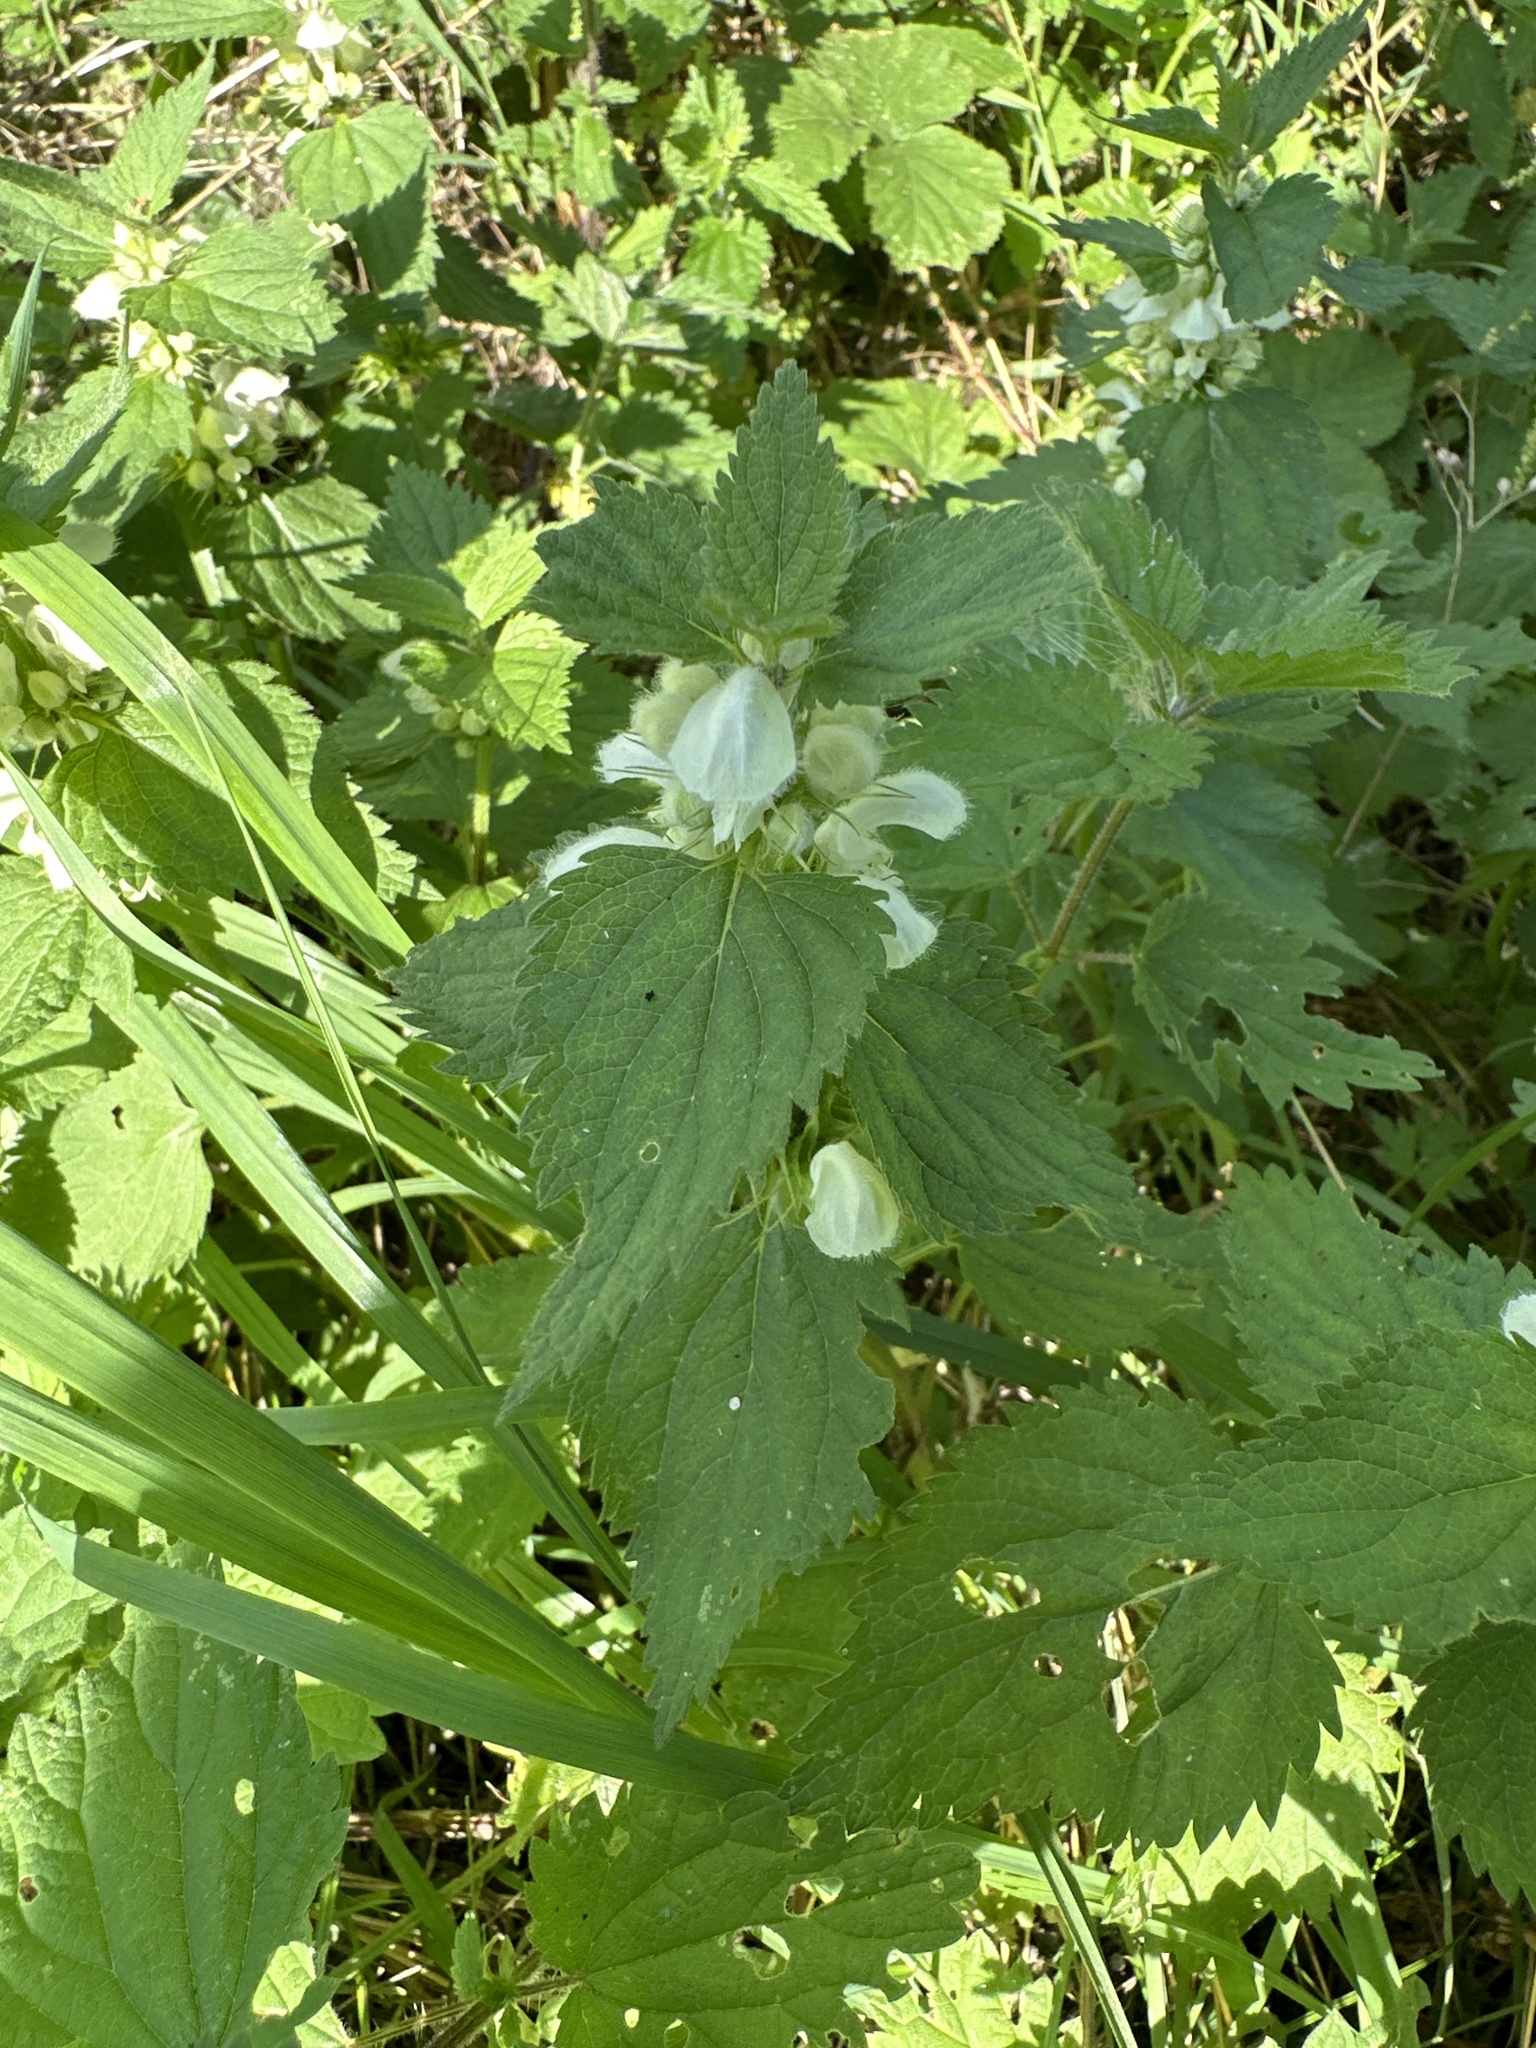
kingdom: Plantae
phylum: Tracheophyta
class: Magnoliopsida
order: Lamiales
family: Lamiaceae
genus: Lamium
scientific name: Lamium album
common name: White dead-nettle
